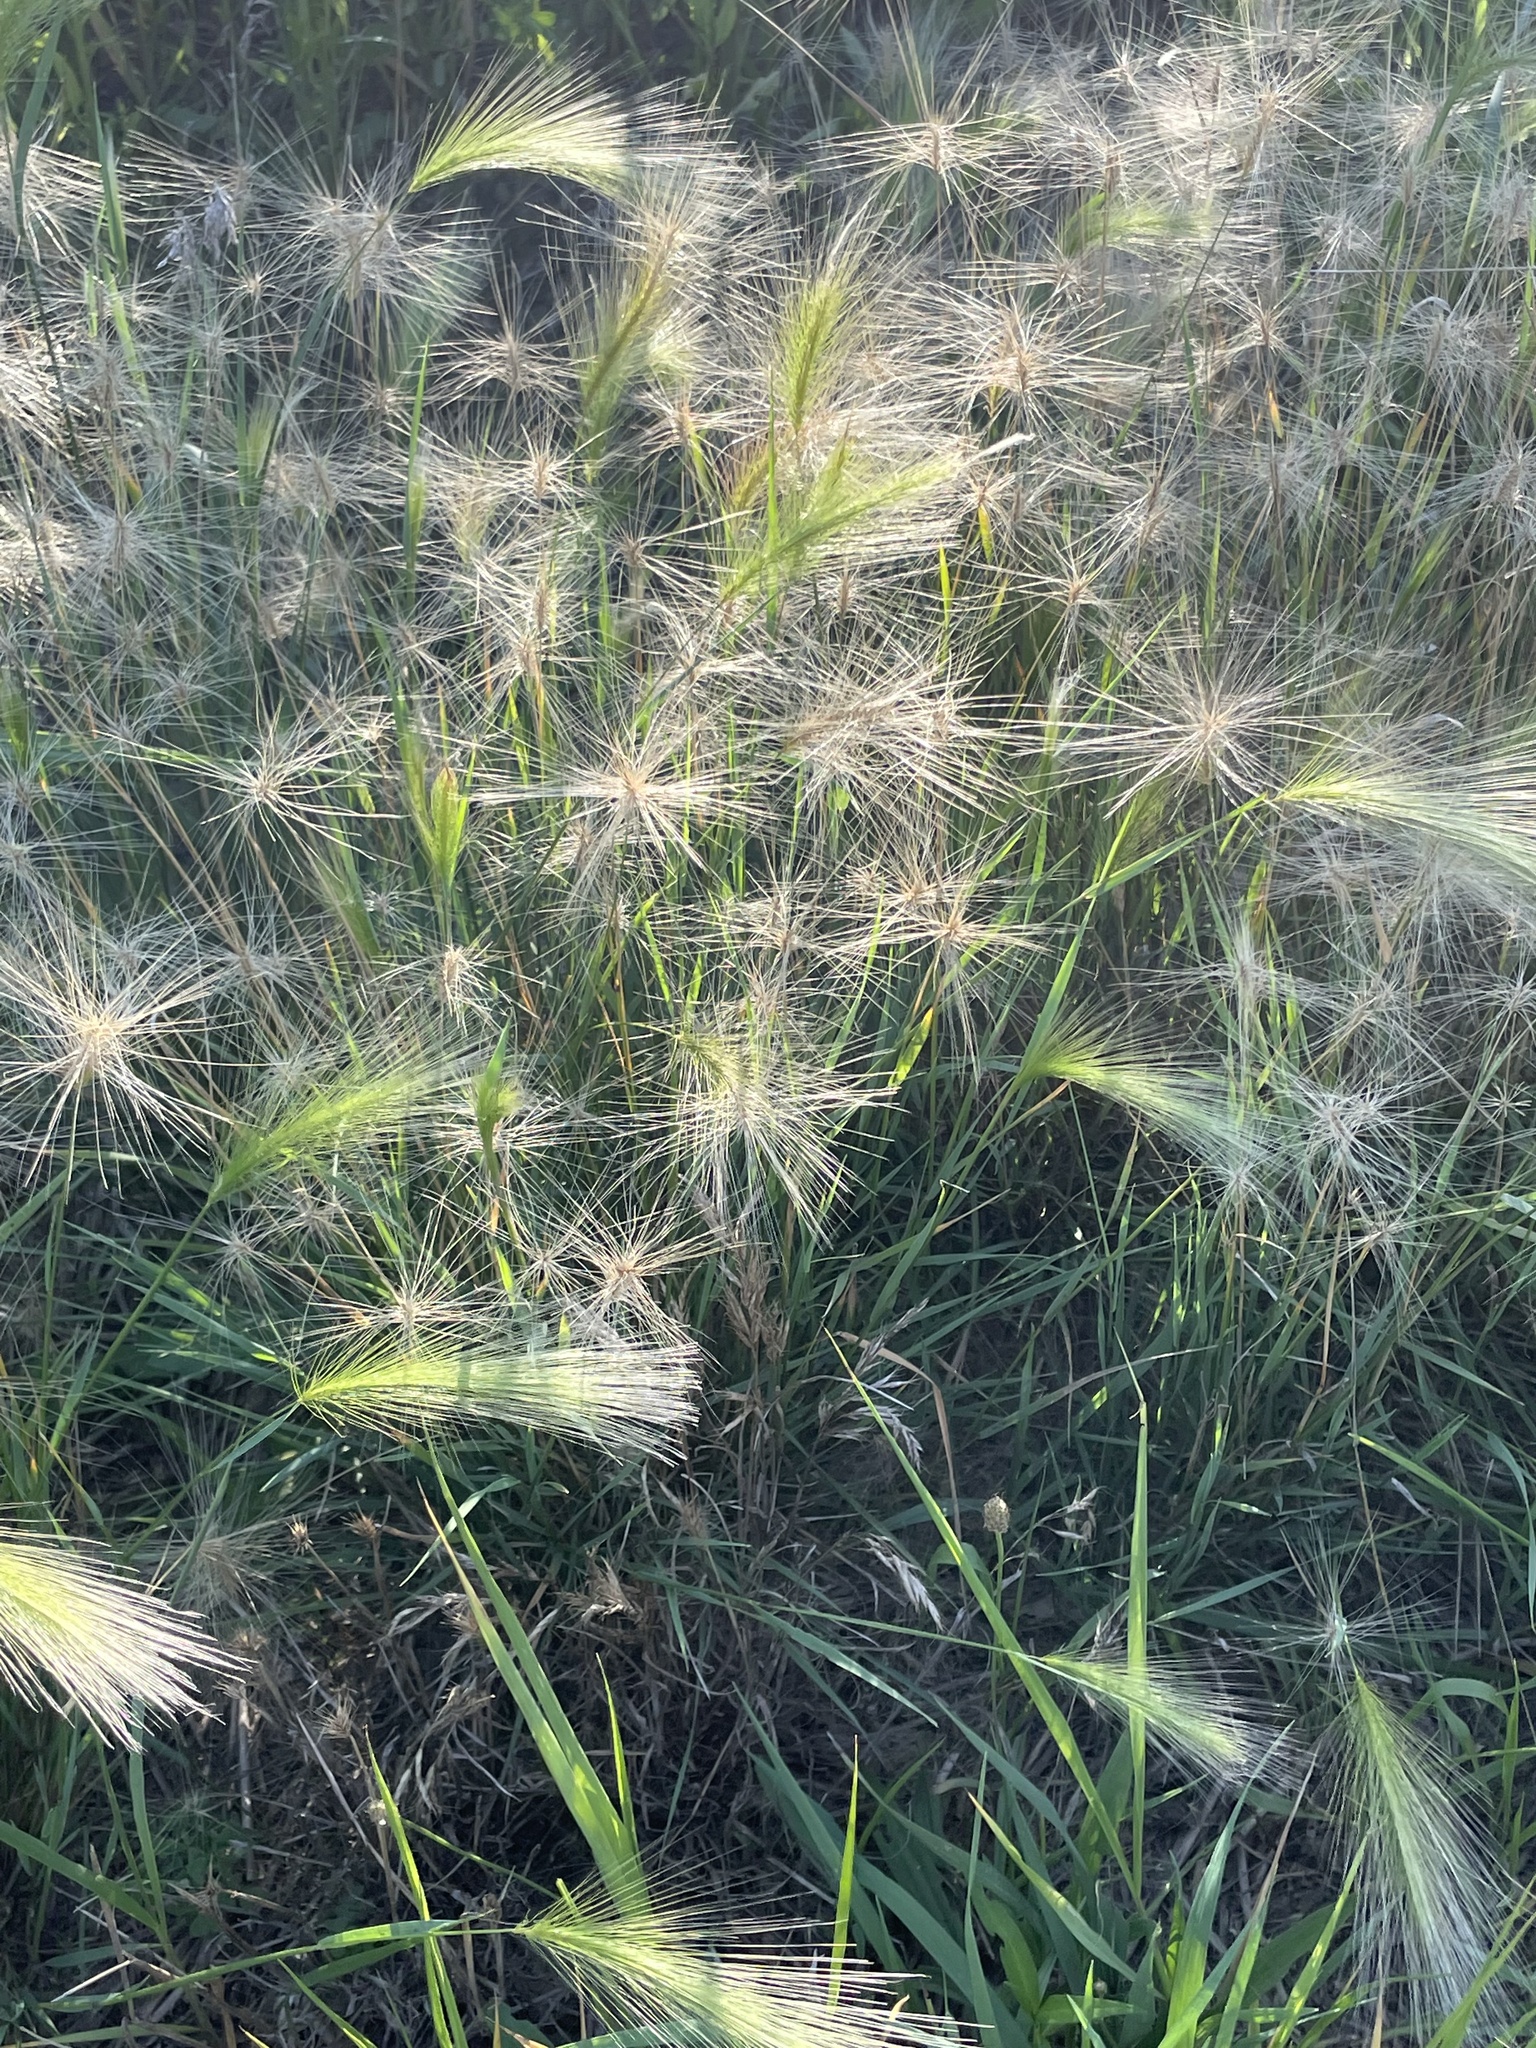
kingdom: Plantae
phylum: Tracheophyta
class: Liliopsida
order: Poales
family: Poaceae
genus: Hordeum
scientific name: Hordeum jubatum
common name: Foxtail barley
